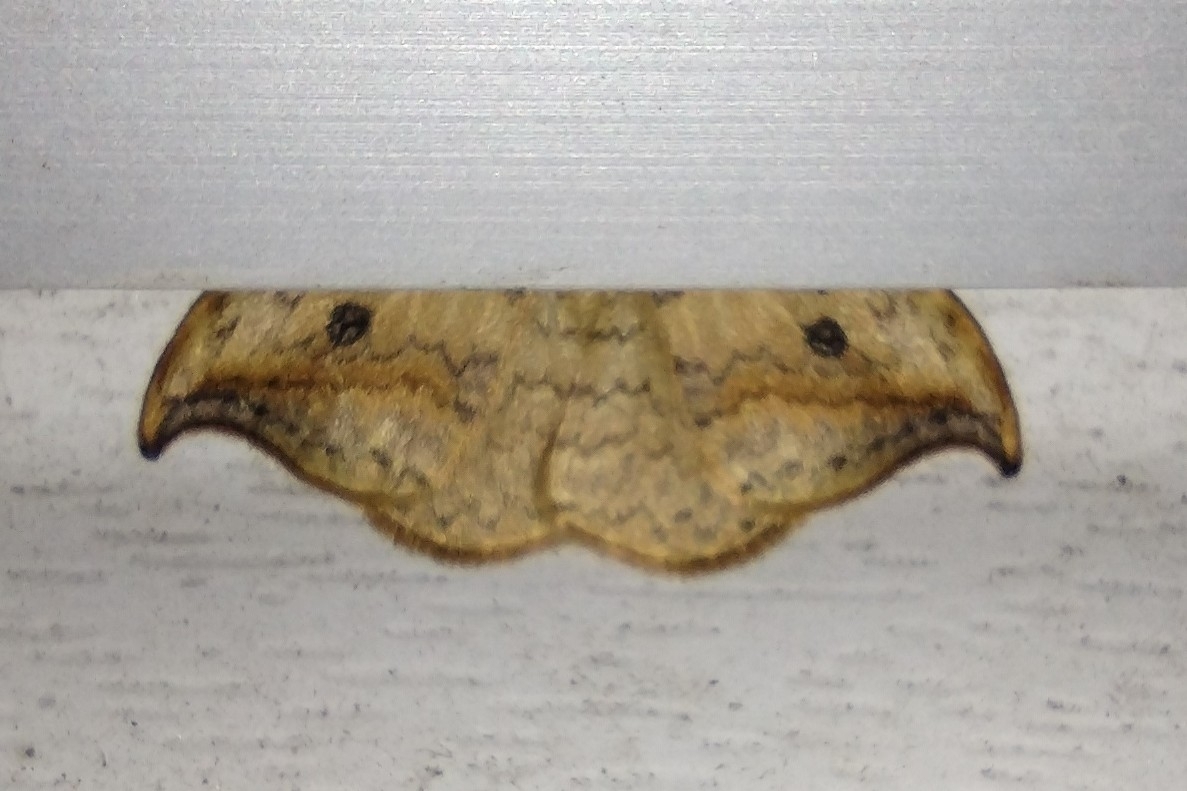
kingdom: Animalia
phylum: Arthropoda
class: Insecta
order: Lepidoptera
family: Drepanidae
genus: Drepana
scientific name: Drepana falcataria
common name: Pebble hook-tip
